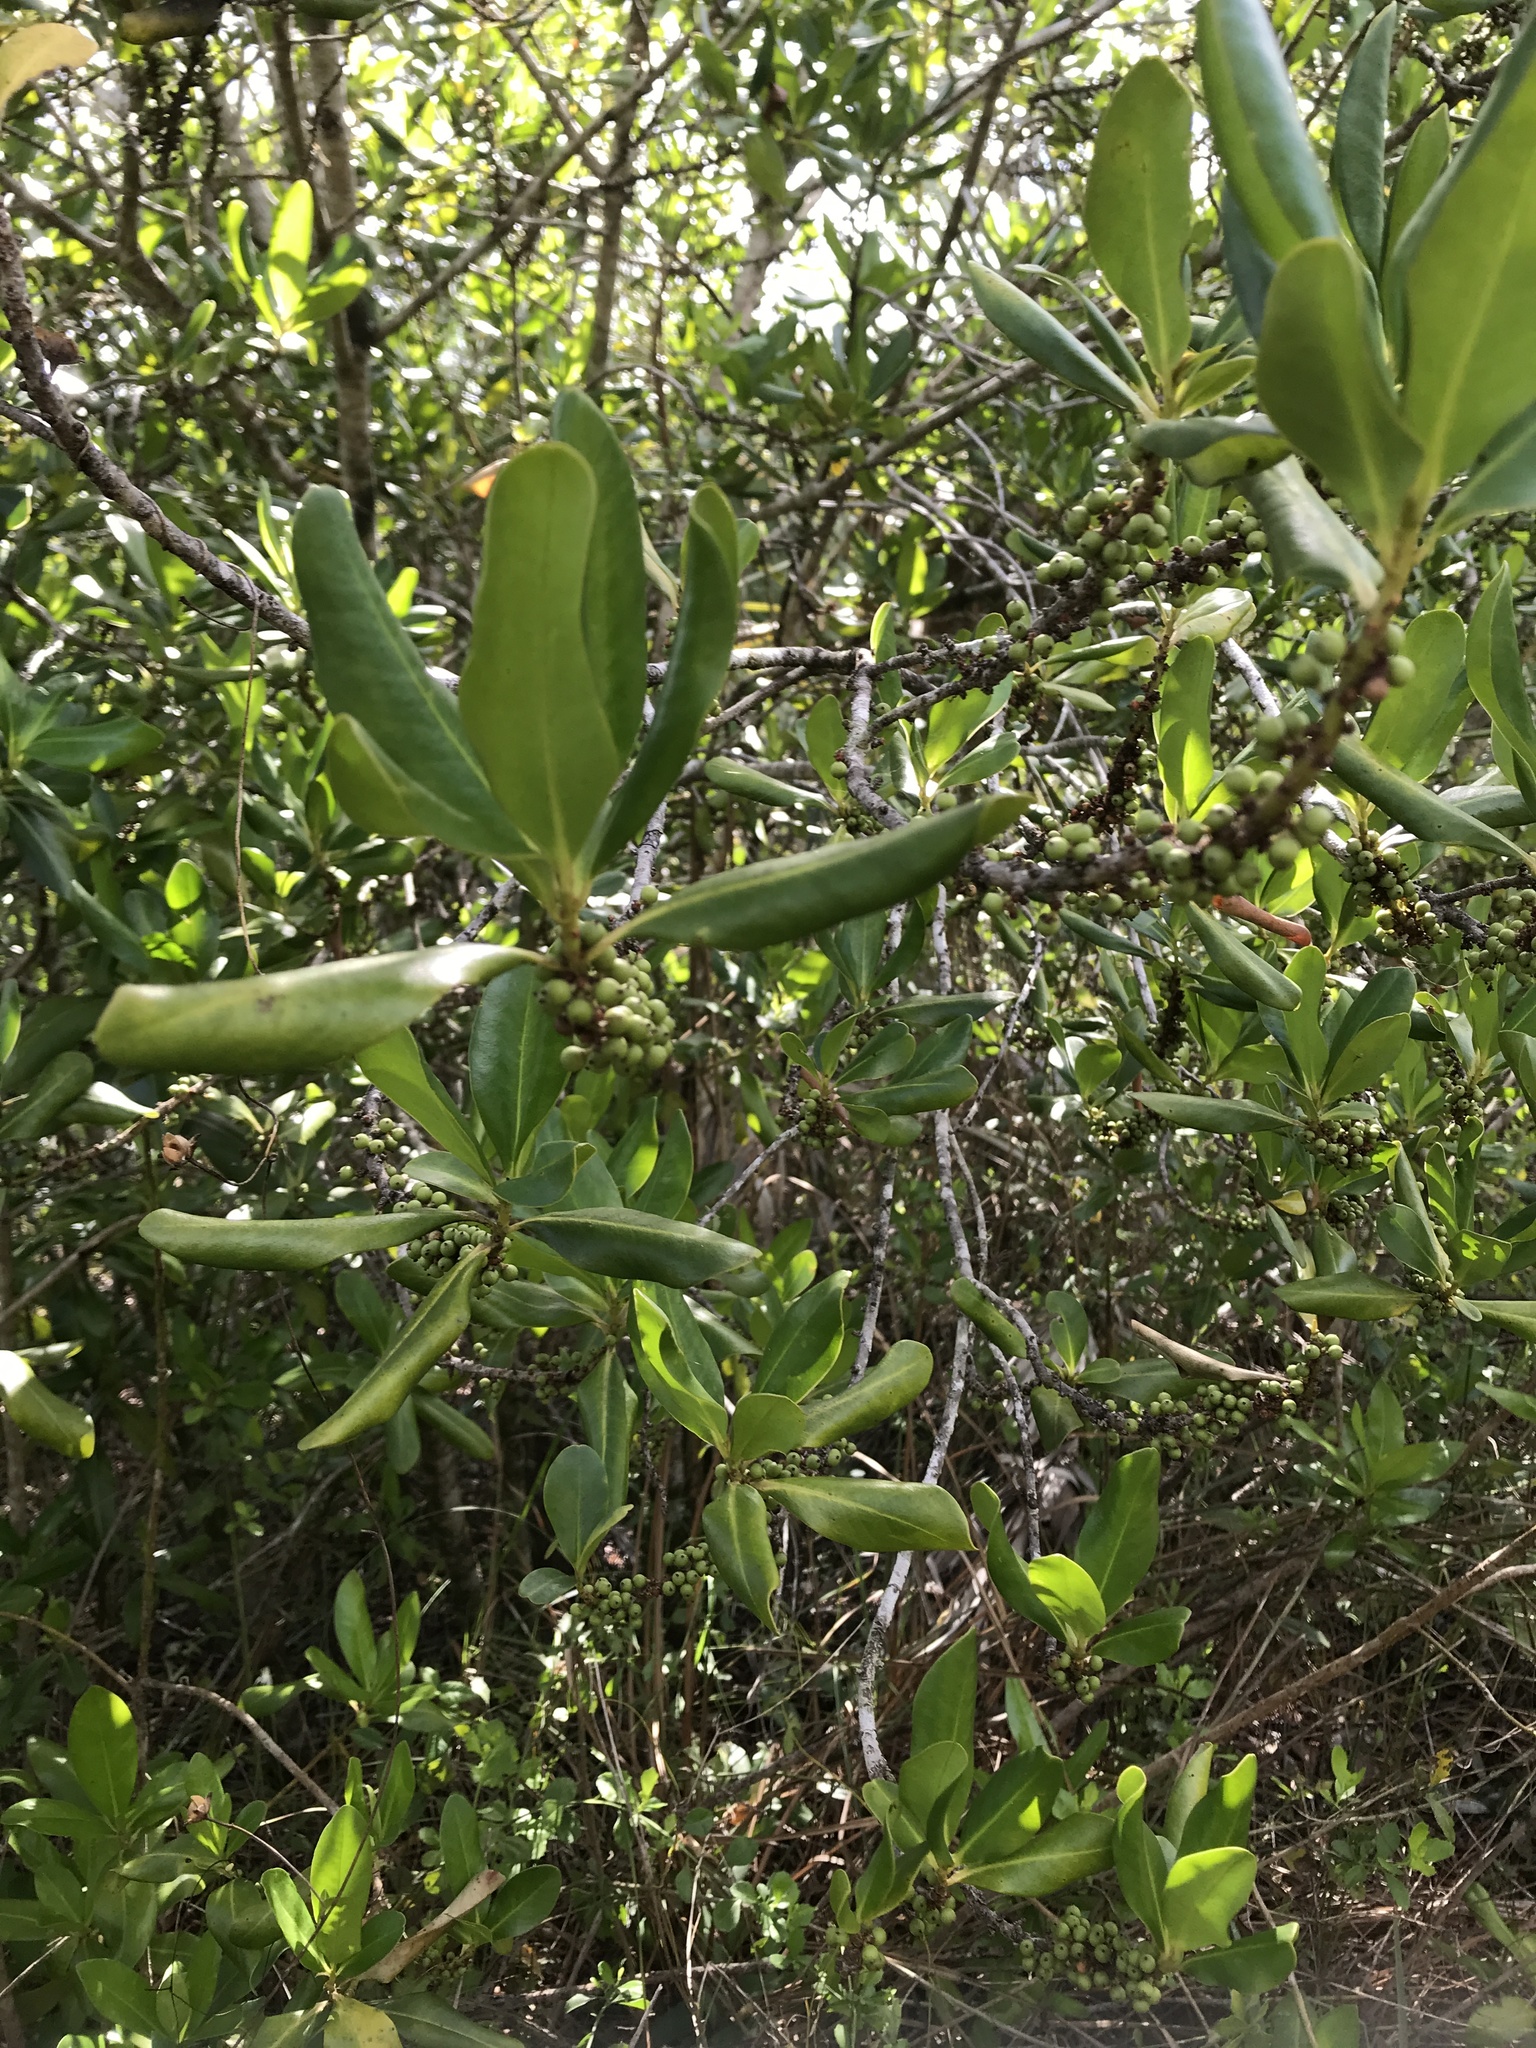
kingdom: Plantae
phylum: Tracheophyta
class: Magnoliopsida
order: Ericales
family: Primulaceae
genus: Myrsine
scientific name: Myrsine floridana
